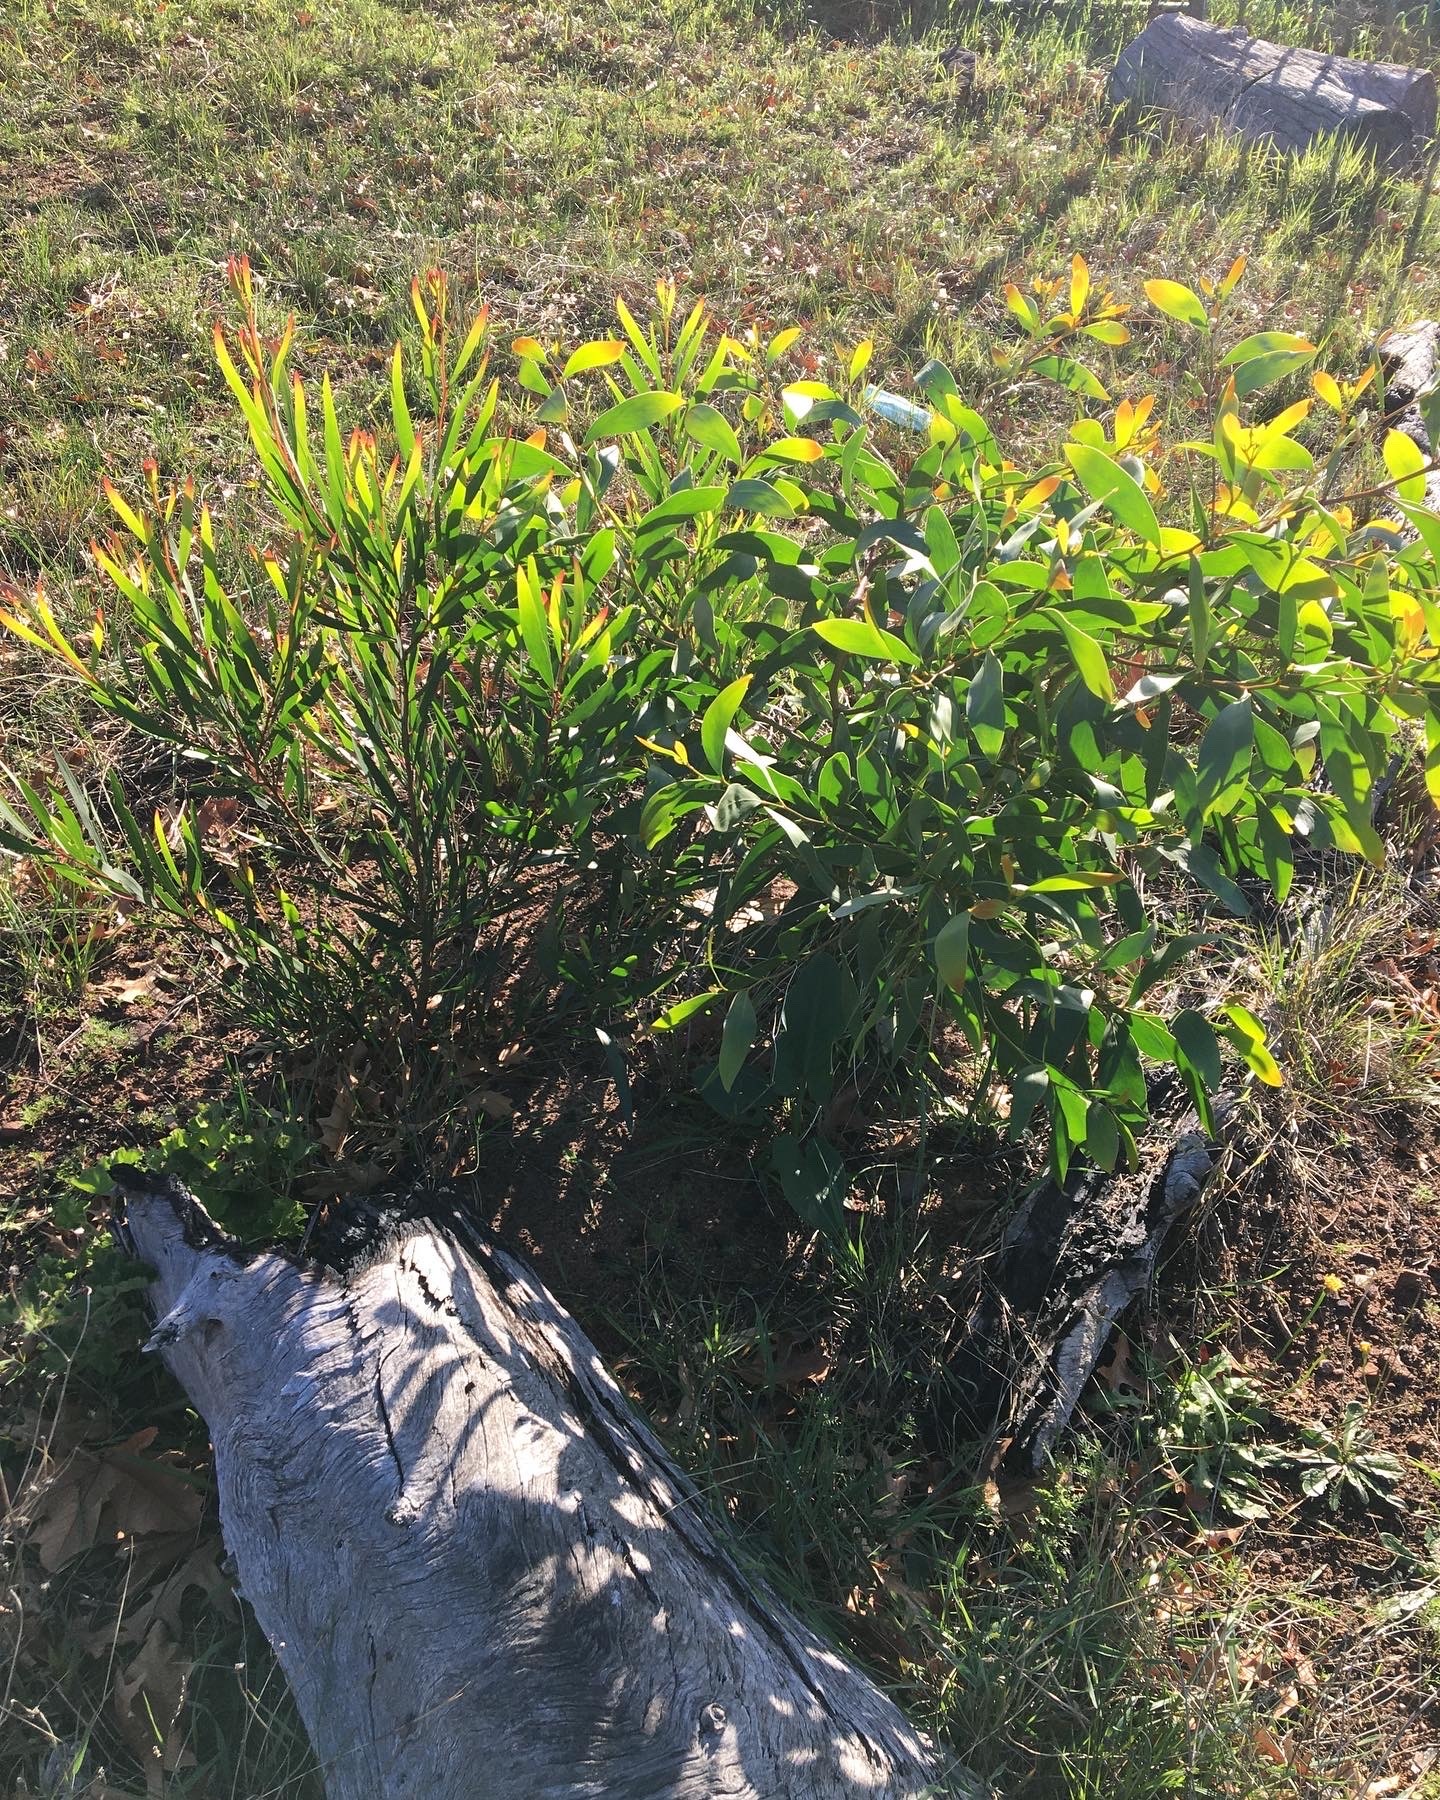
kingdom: Plantae
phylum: Tracheophyta
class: Magnoliopsida
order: Fabales
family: Fabaceae
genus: Acacia
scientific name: Acacia pycnantha
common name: Golden wattle
